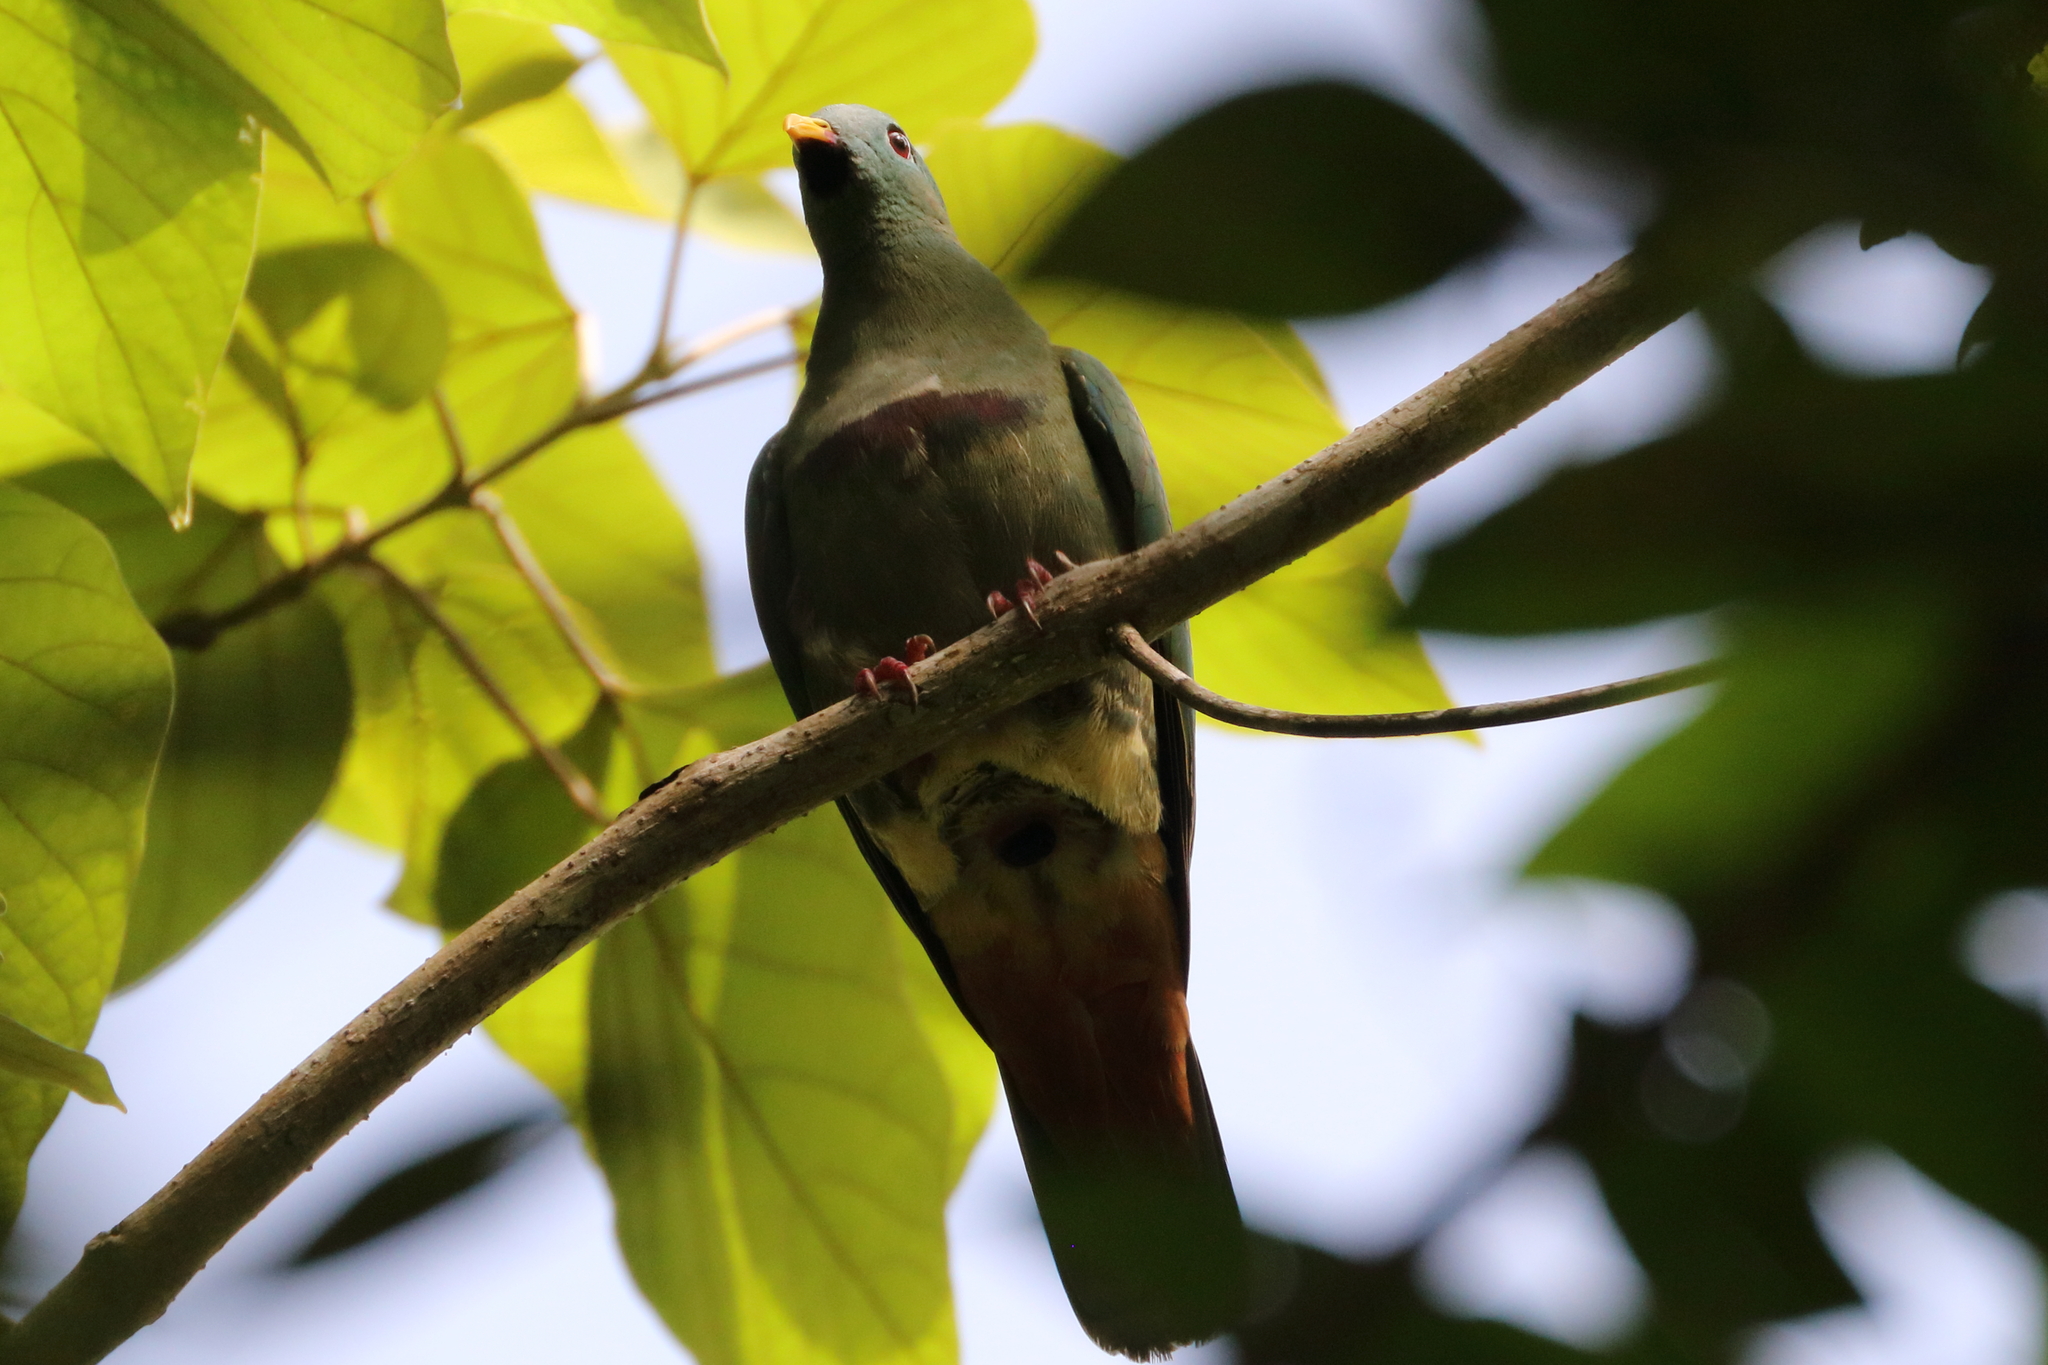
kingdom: Animalia
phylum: Chordata
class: Aves
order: Columbiformes
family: Columbidae
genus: Ptilinopus
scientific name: Ptilinopus leclancheri
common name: Black-chinned fruit dove
